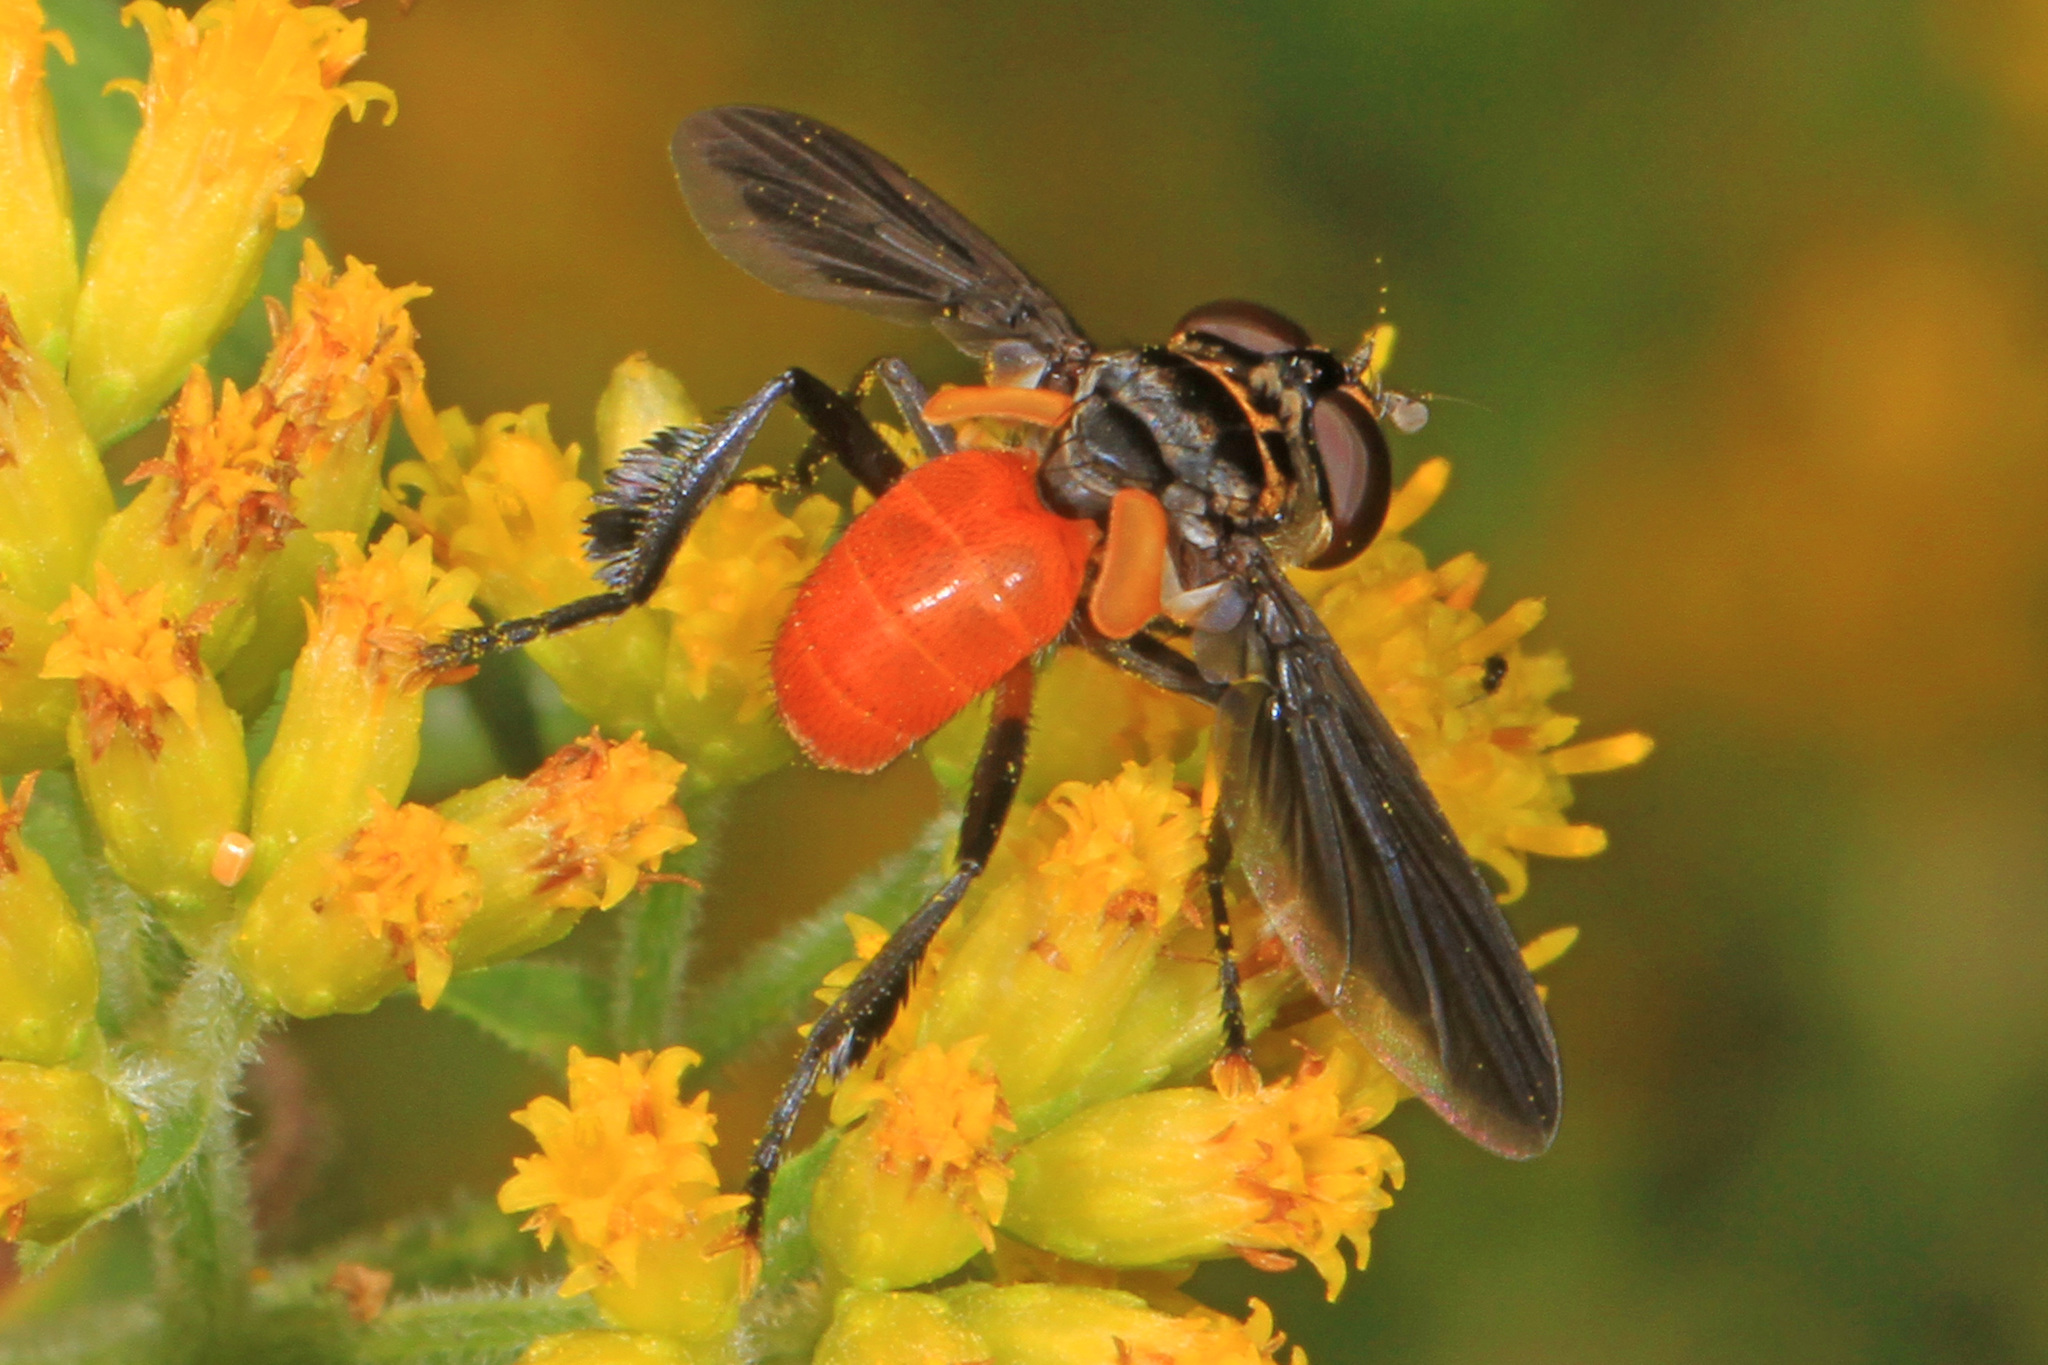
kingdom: Animalia
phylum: Arthropoda
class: Insecta
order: Diptera
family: Tachinidae
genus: Trichopoda
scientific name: Trichopoda pennipes
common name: Tachinid fly
